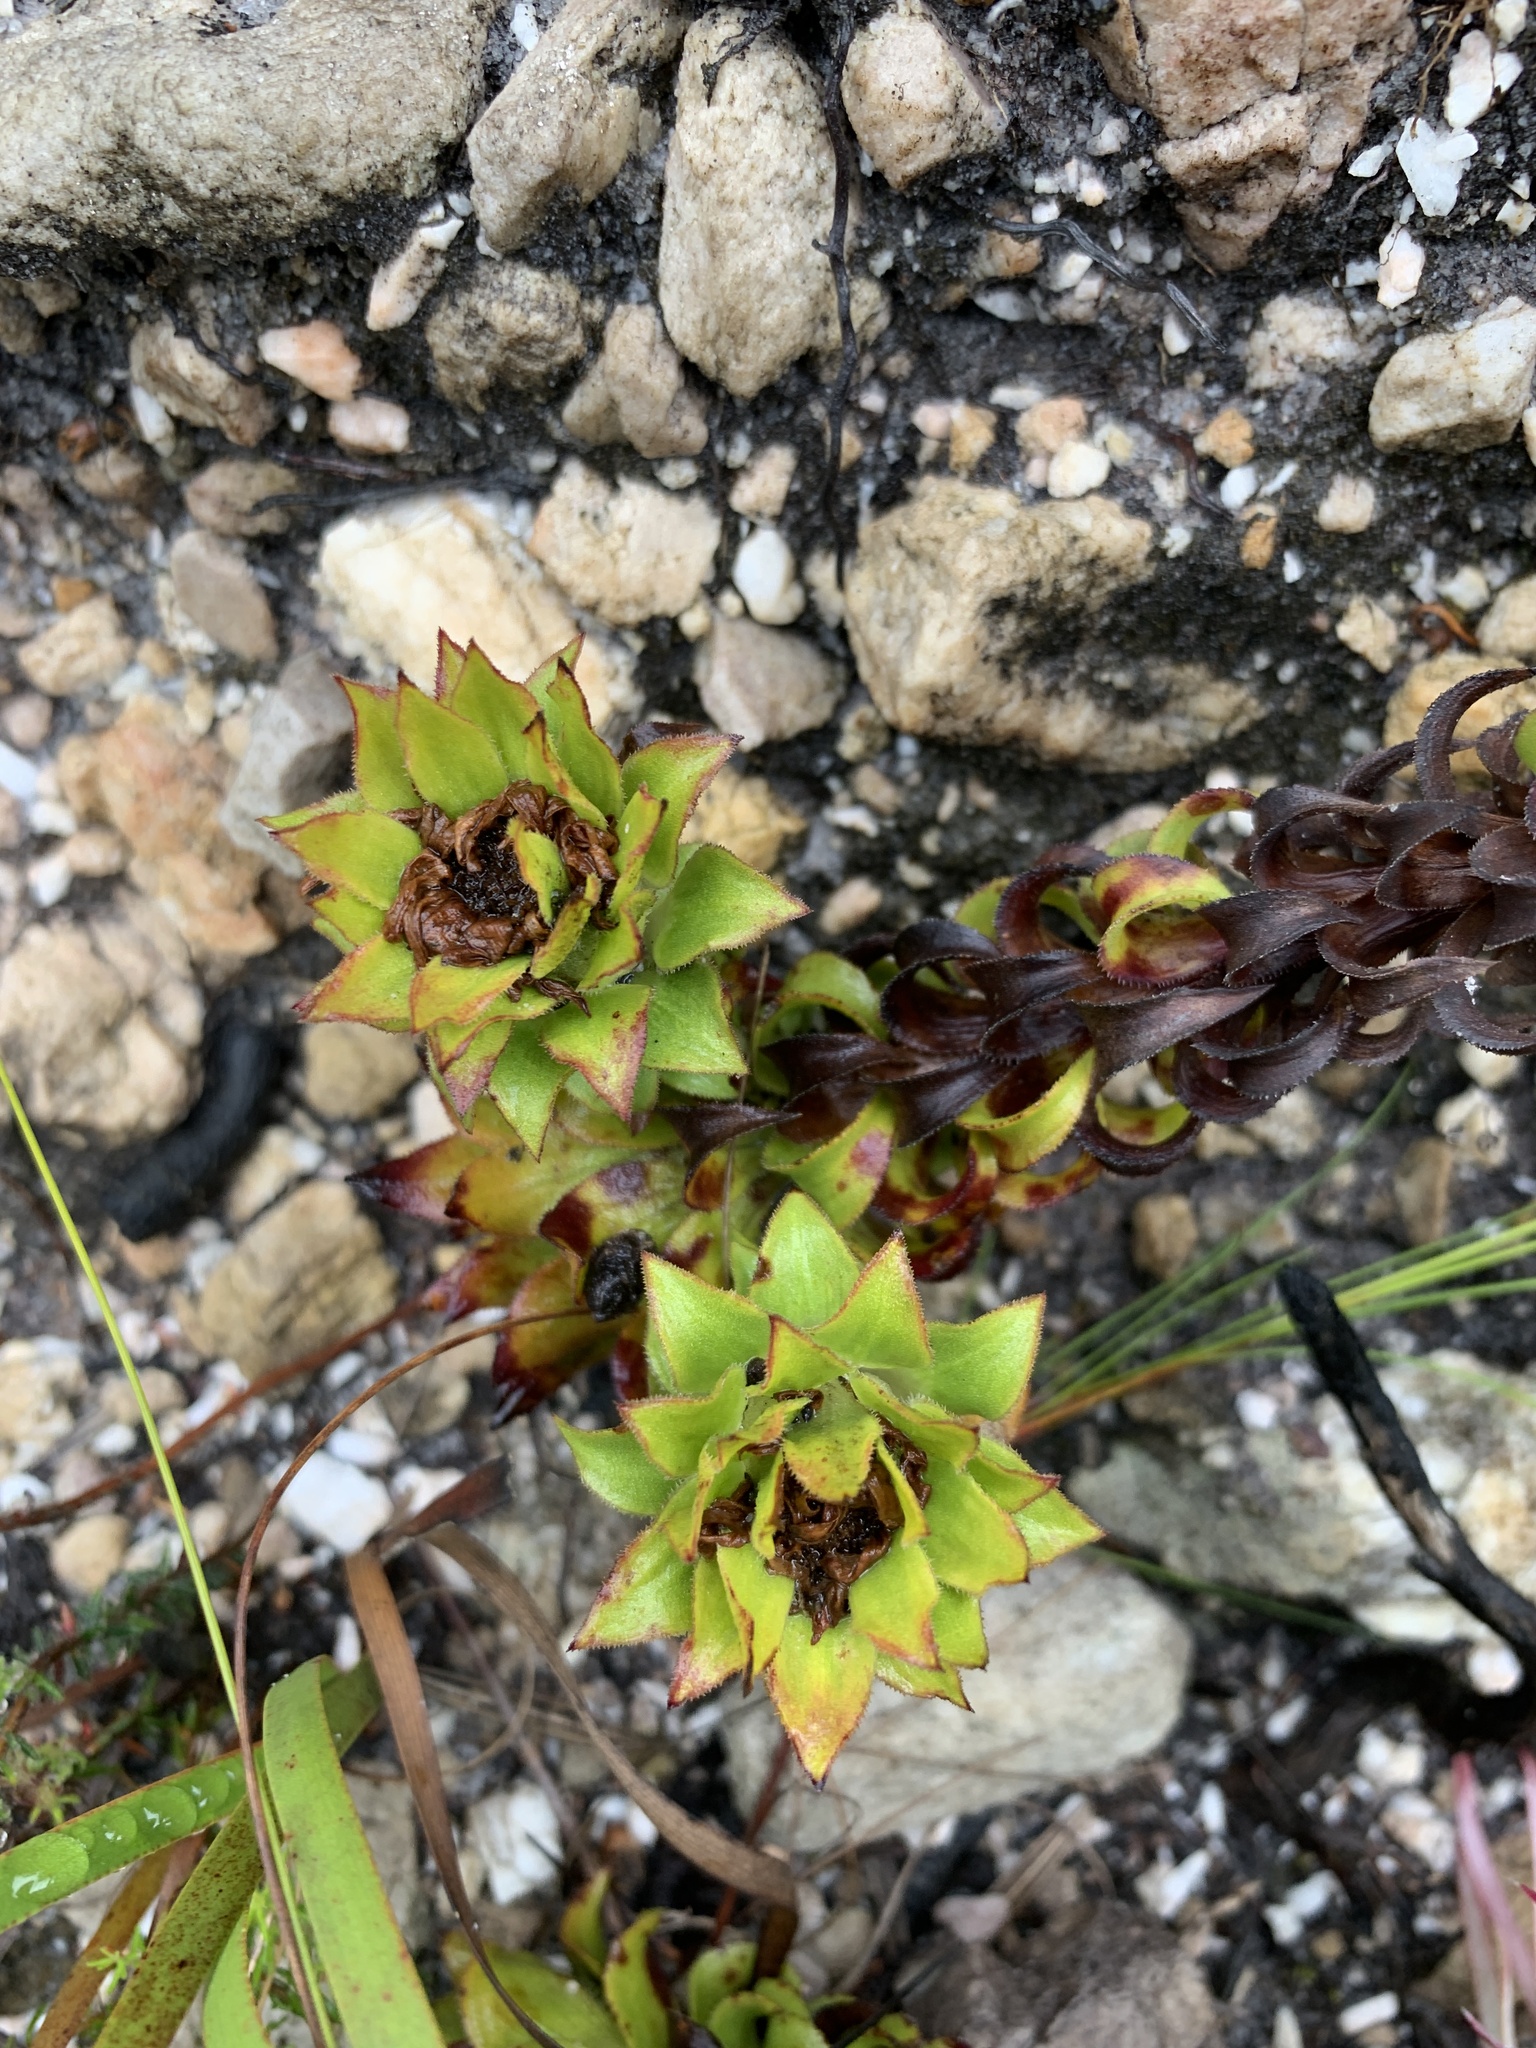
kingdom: Plantae
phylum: Tracheophyta
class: Magnoliopsida
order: Asterales
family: Asteraceae
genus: Oedera
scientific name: Oedera imbricata
